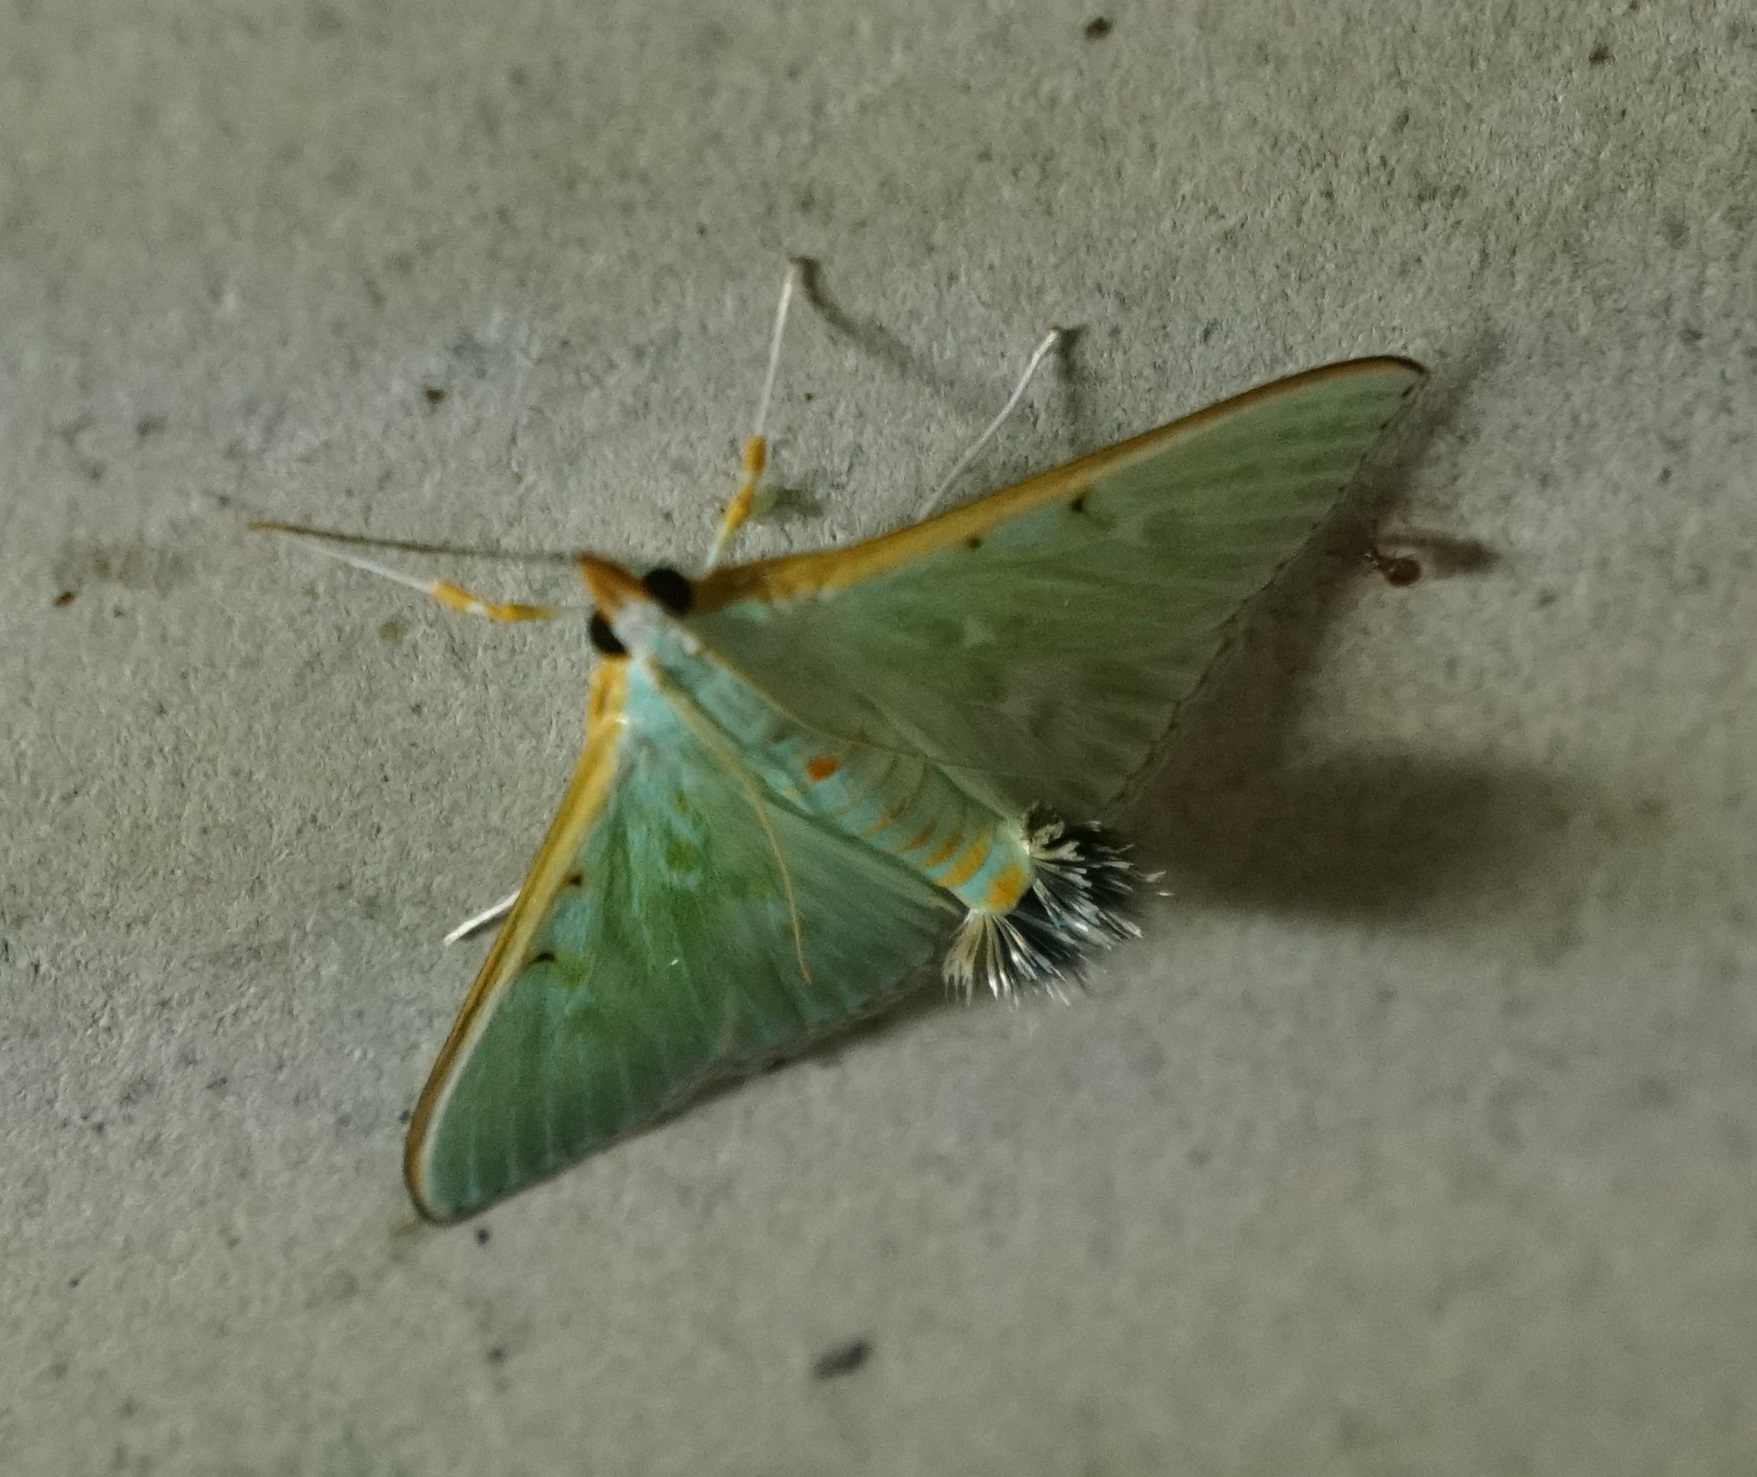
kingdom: Animalia
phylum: Arthropoda
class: Insecta
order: Lepidoptera
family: Crambidae
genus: Arthroschista
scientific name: Arthroschista hilaralis
